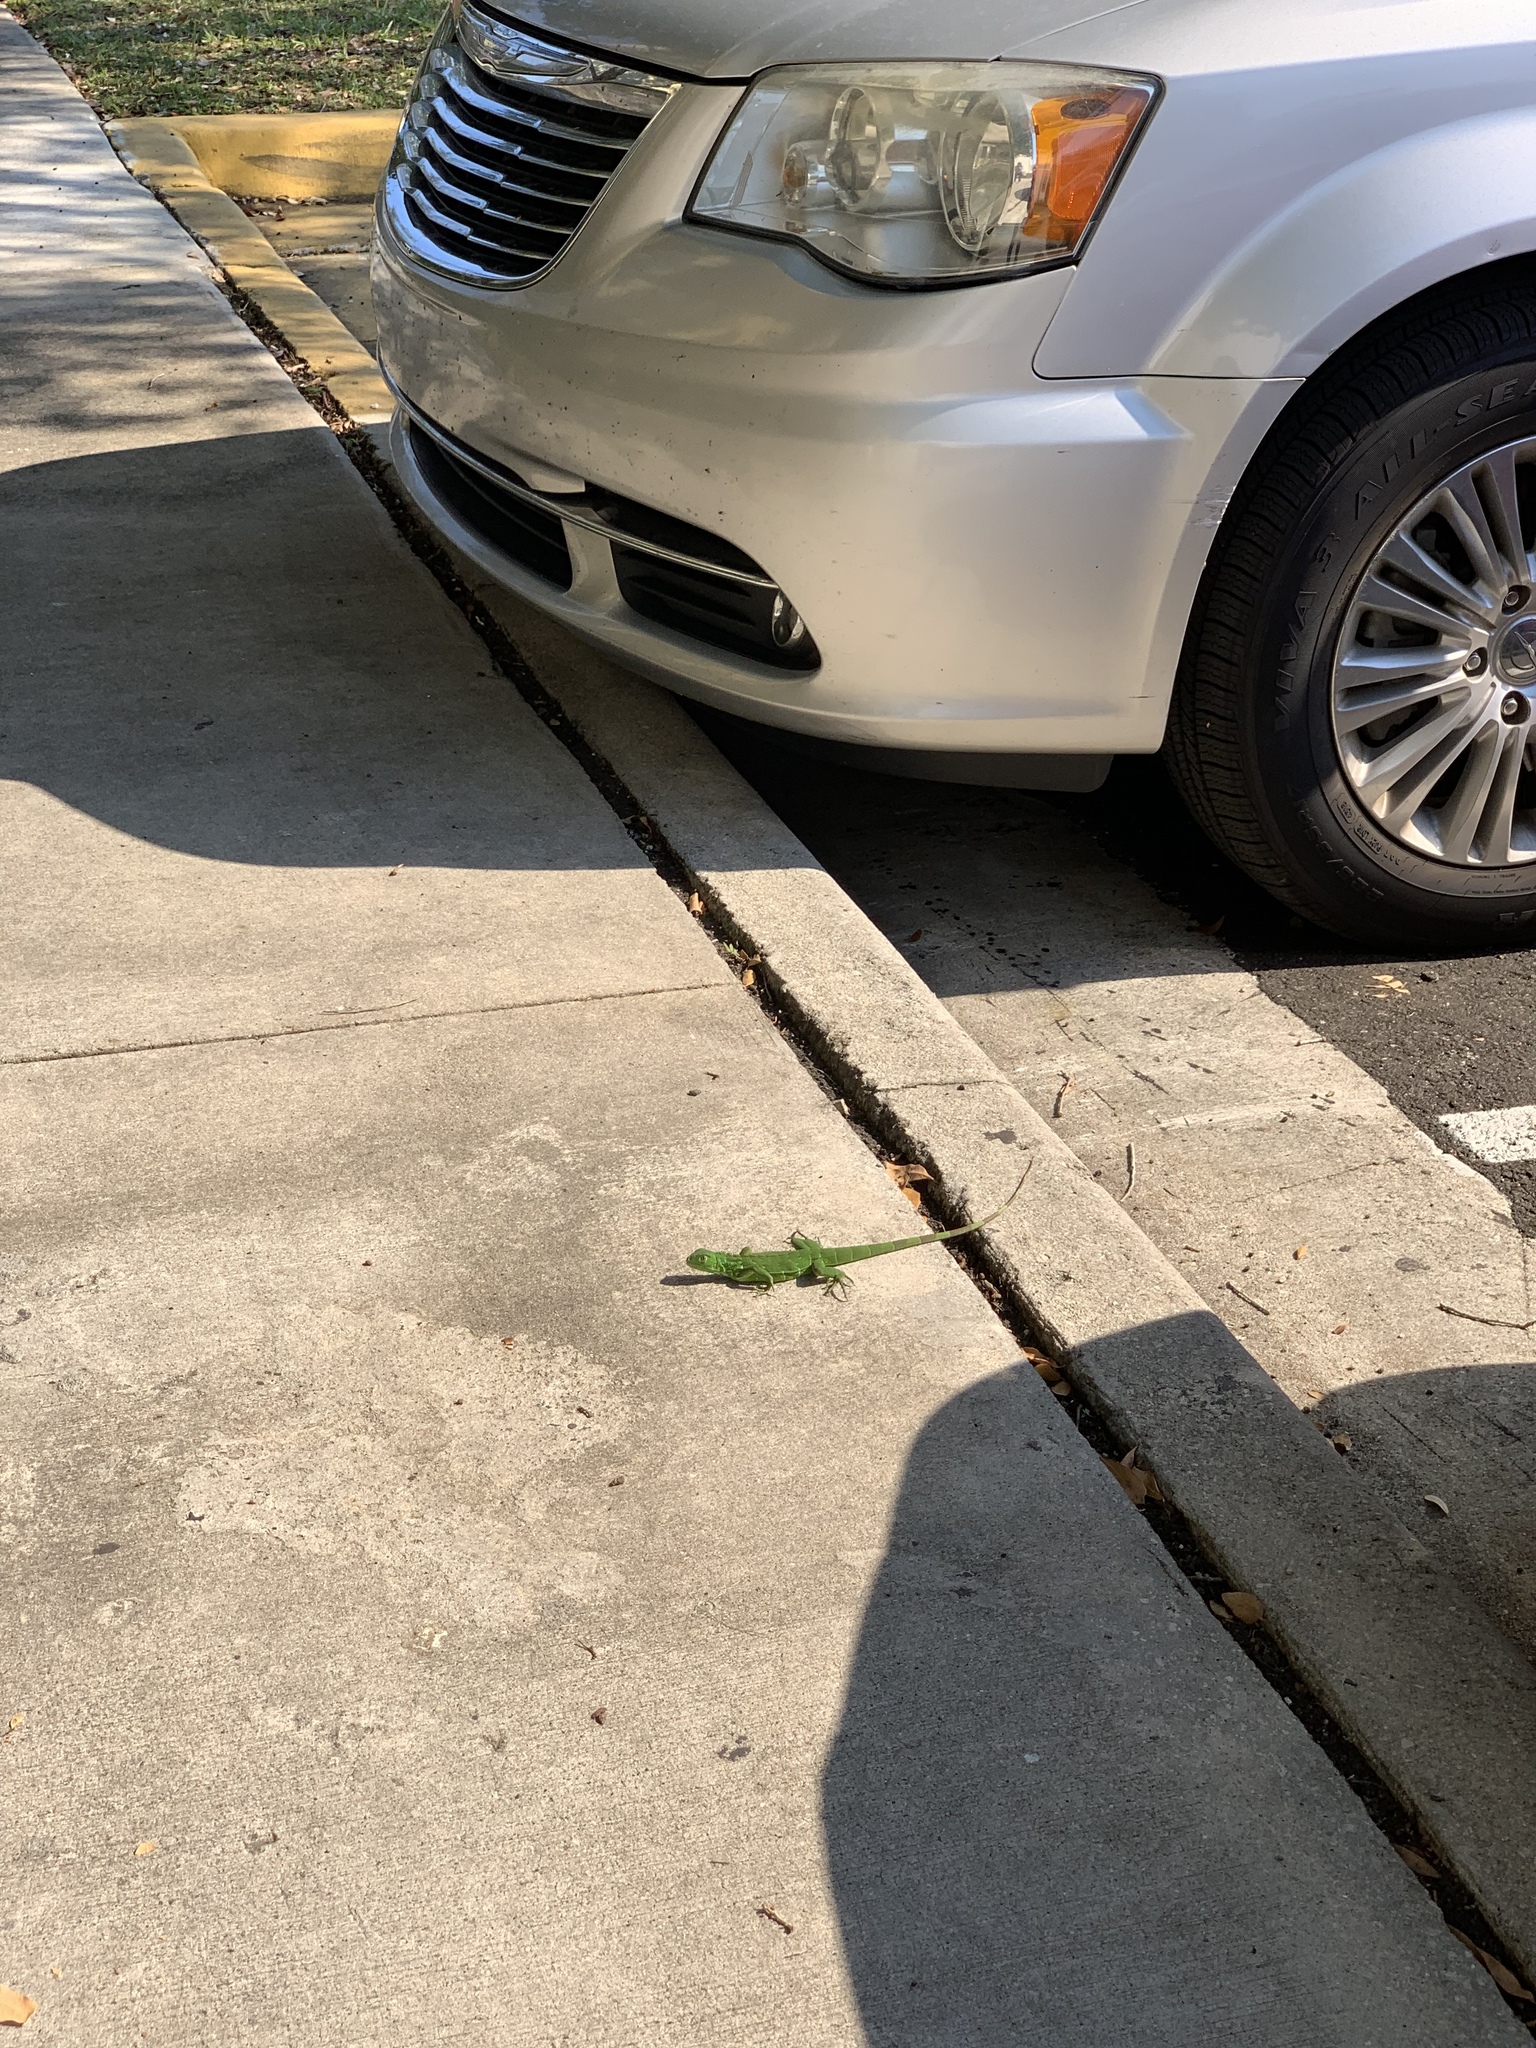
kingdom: Animalia
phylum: Chordata
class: Squamata
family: Iguanidae
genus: Iguana
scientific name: Iguana iguana
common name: Green iguana
